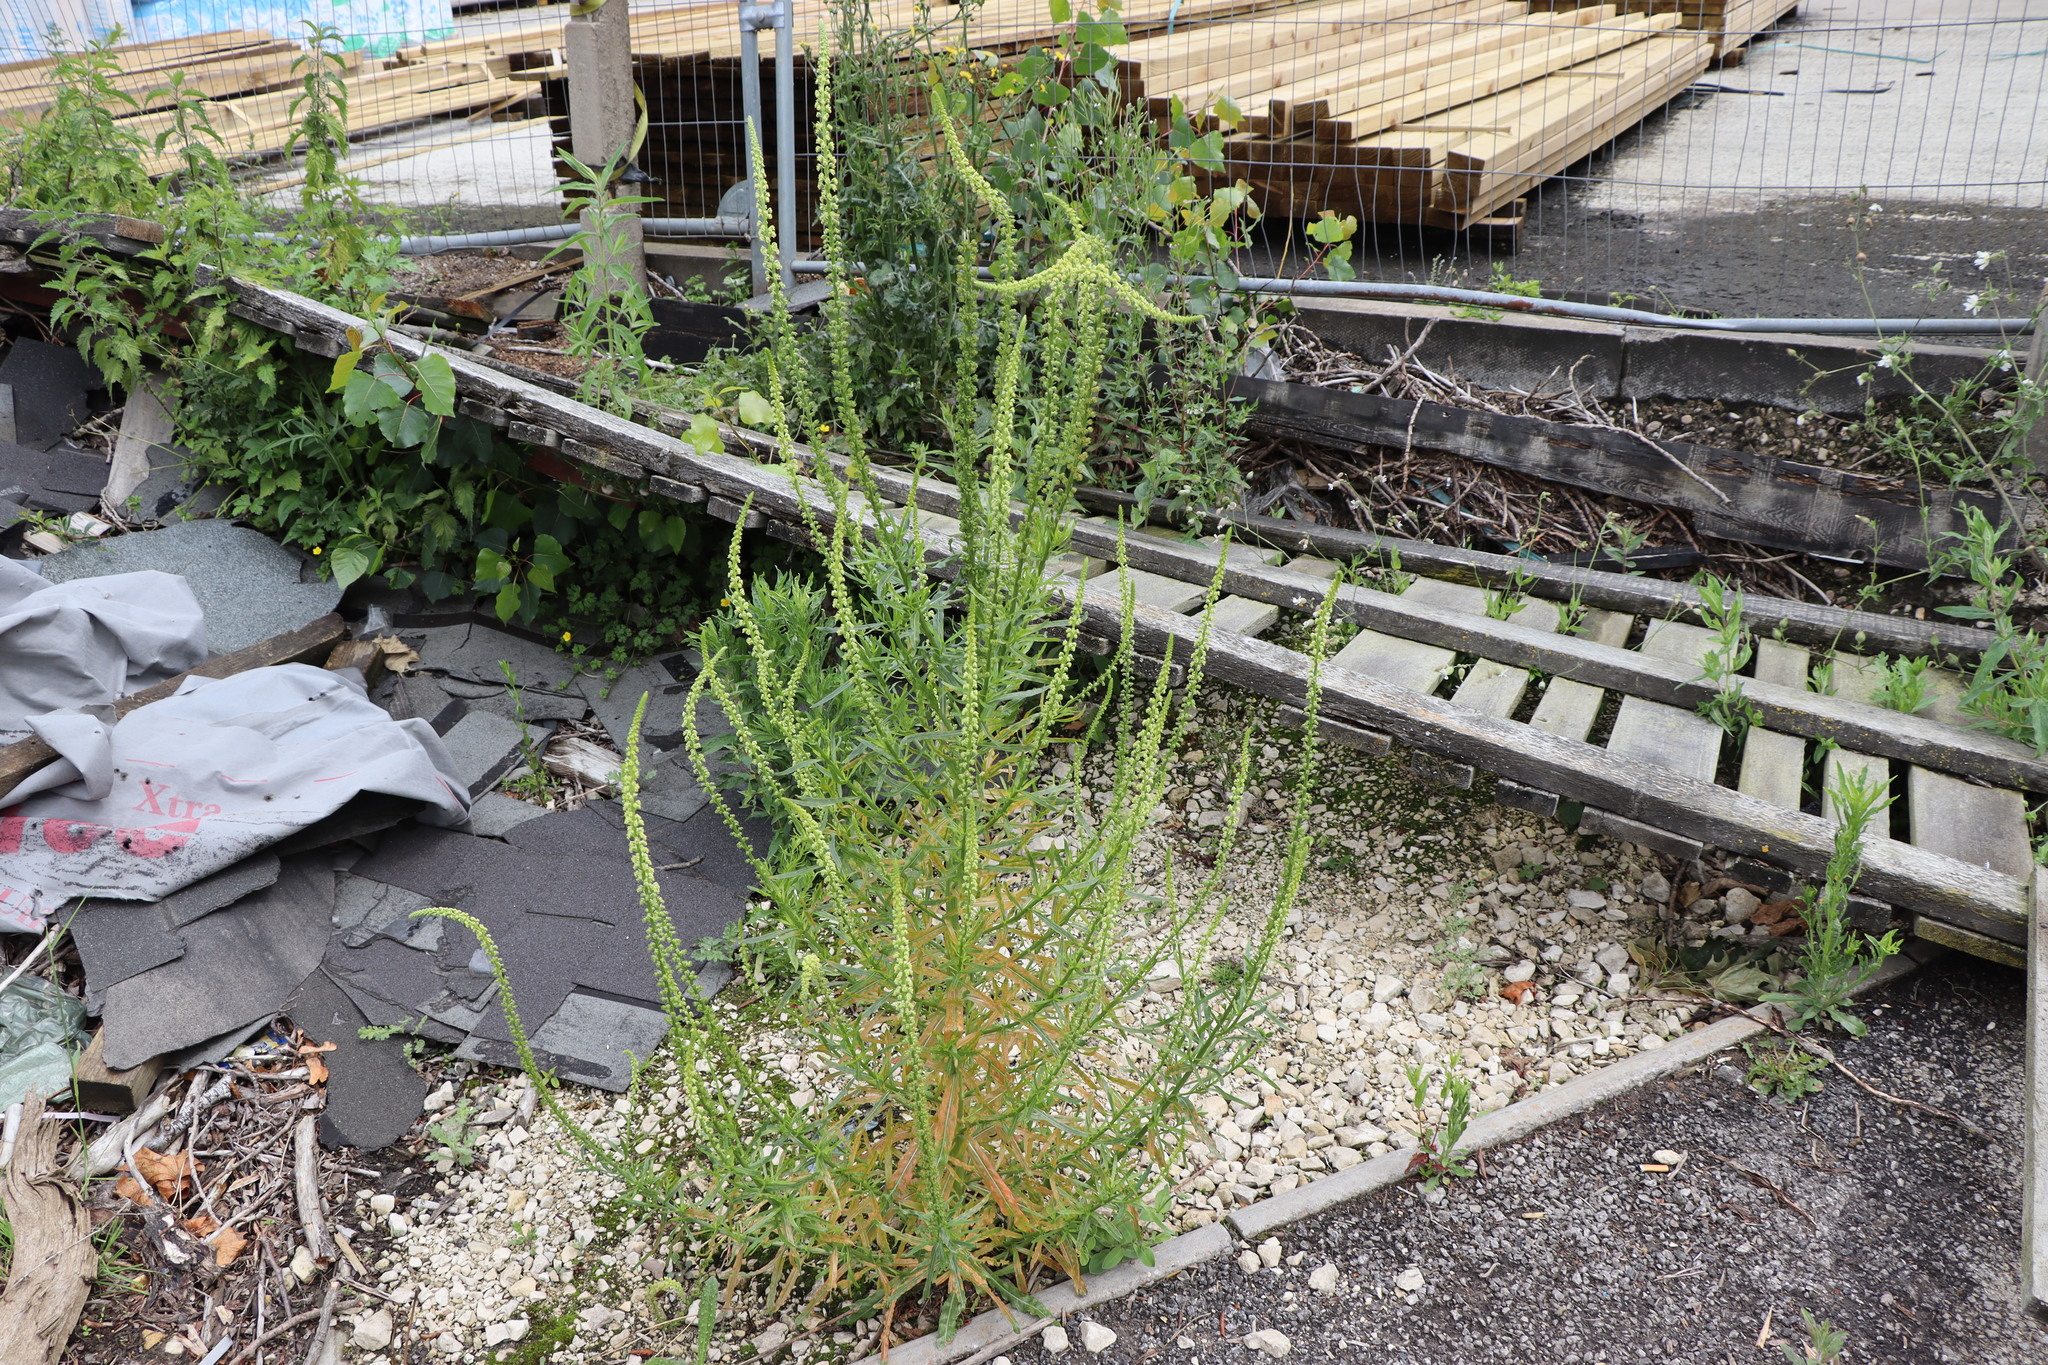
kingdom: Plantae
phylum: Tracheophyta
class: Magnoliopsida
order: Brassicales
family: Resedaceae
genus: Reseda
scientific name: Reseda luteola
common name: Weld
